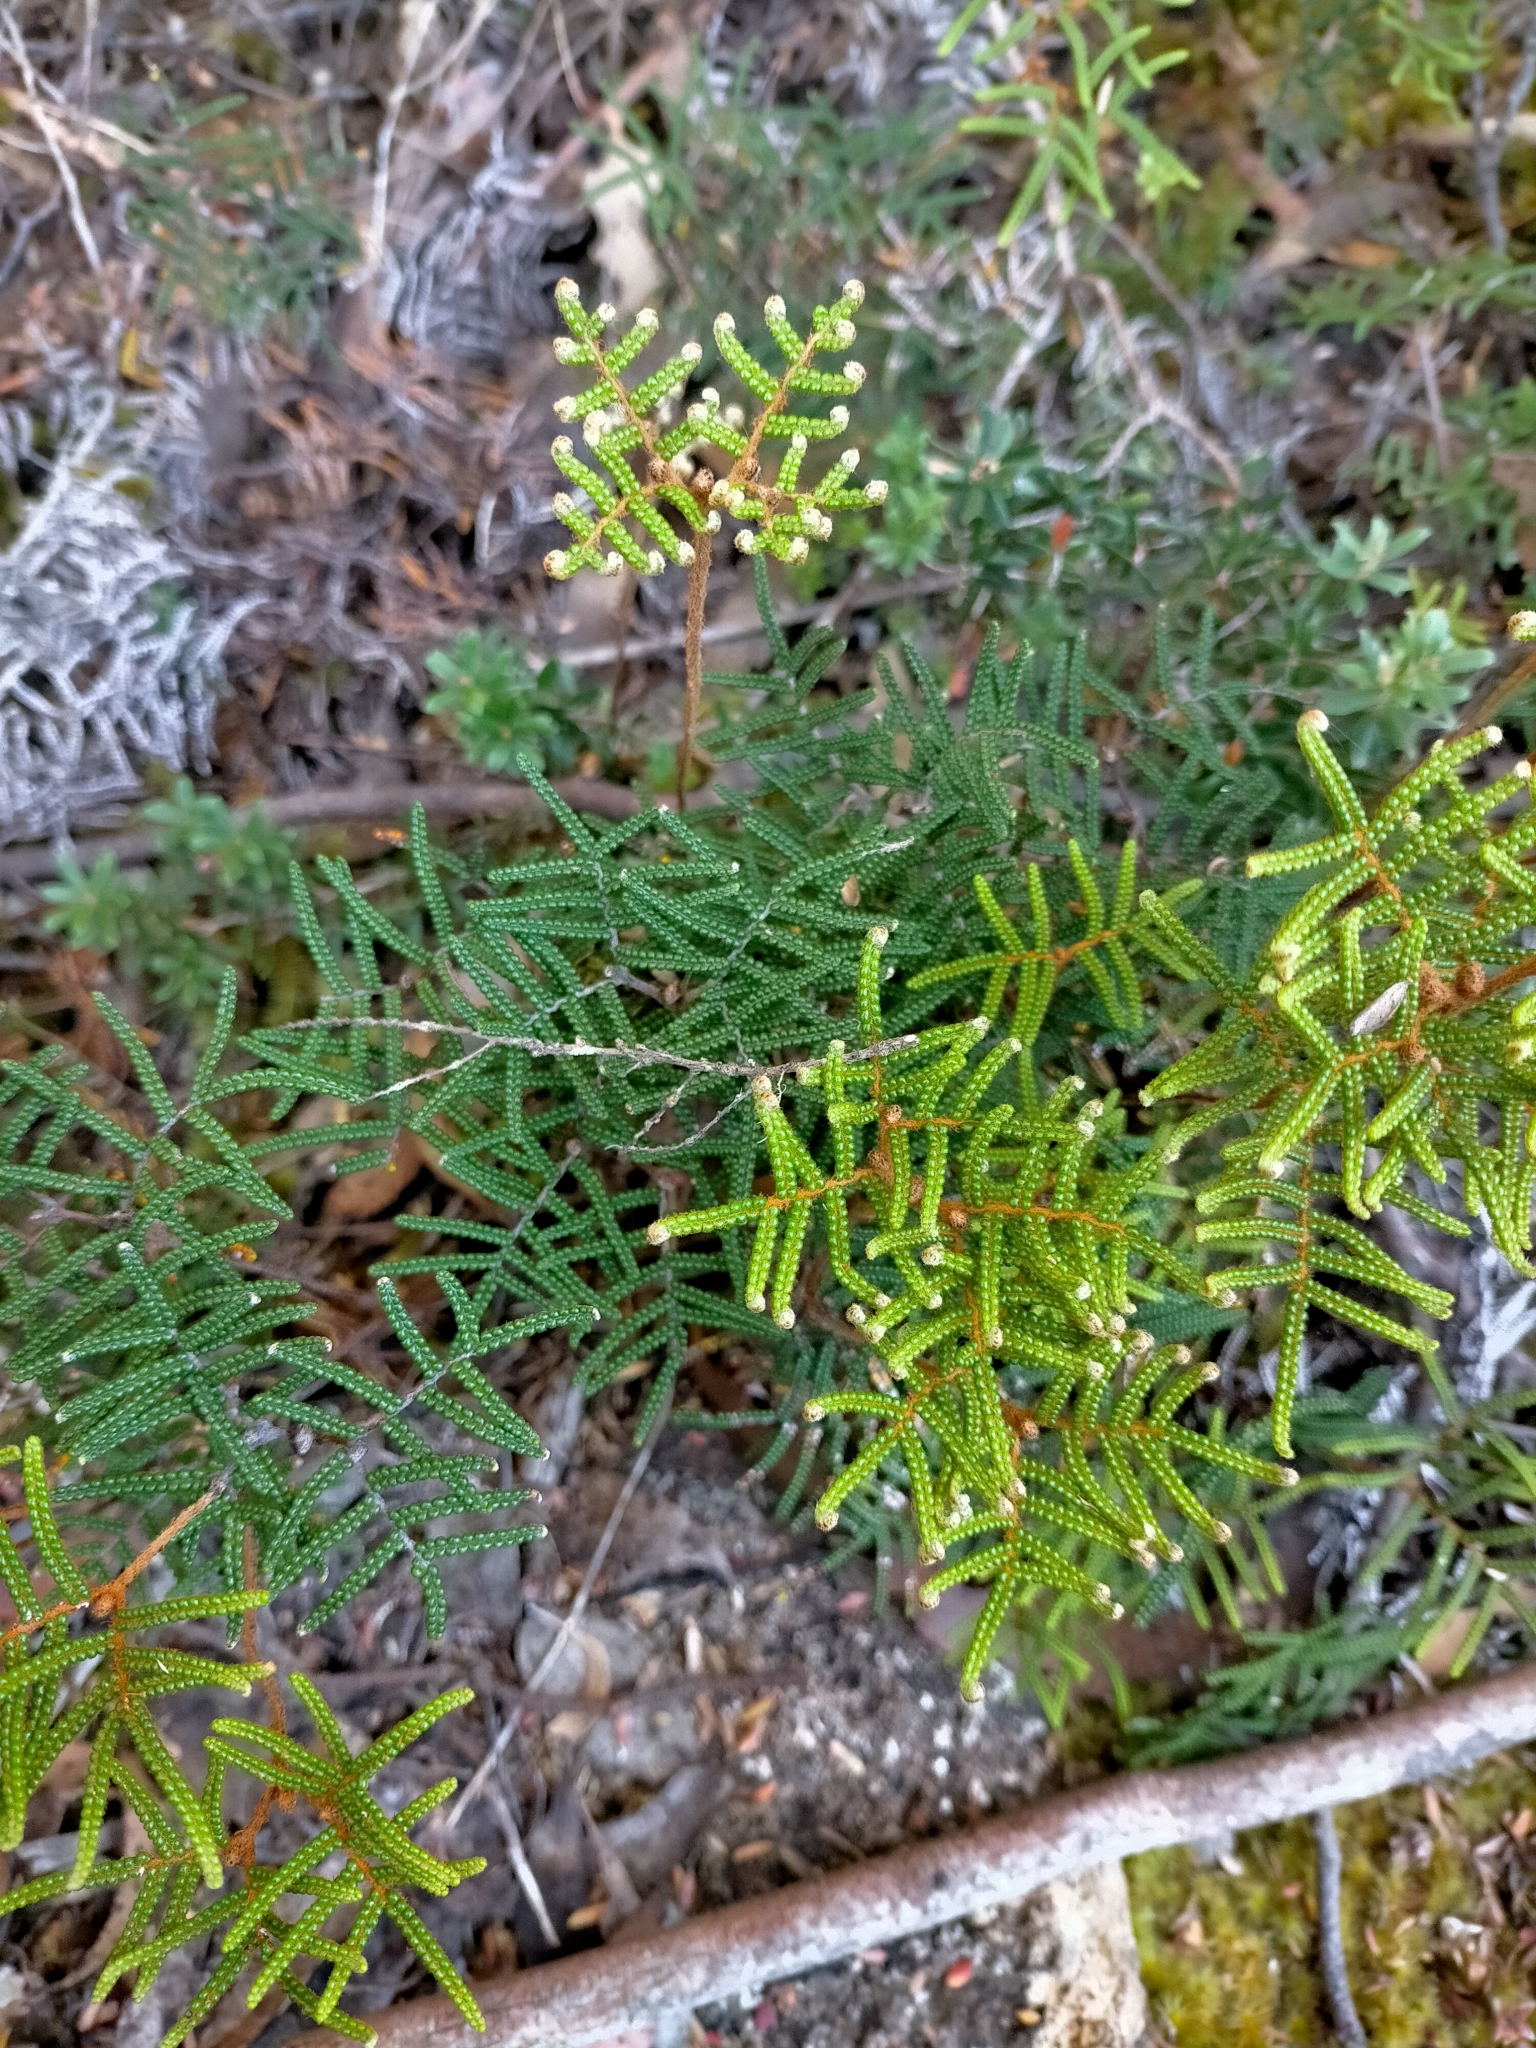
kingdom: Plantae
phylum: Tracheophyta
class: Polypodiopsida
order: Gleicheniales
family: Gleicheniaceae
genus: Gleichenia
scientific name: Gleichenia alpina
